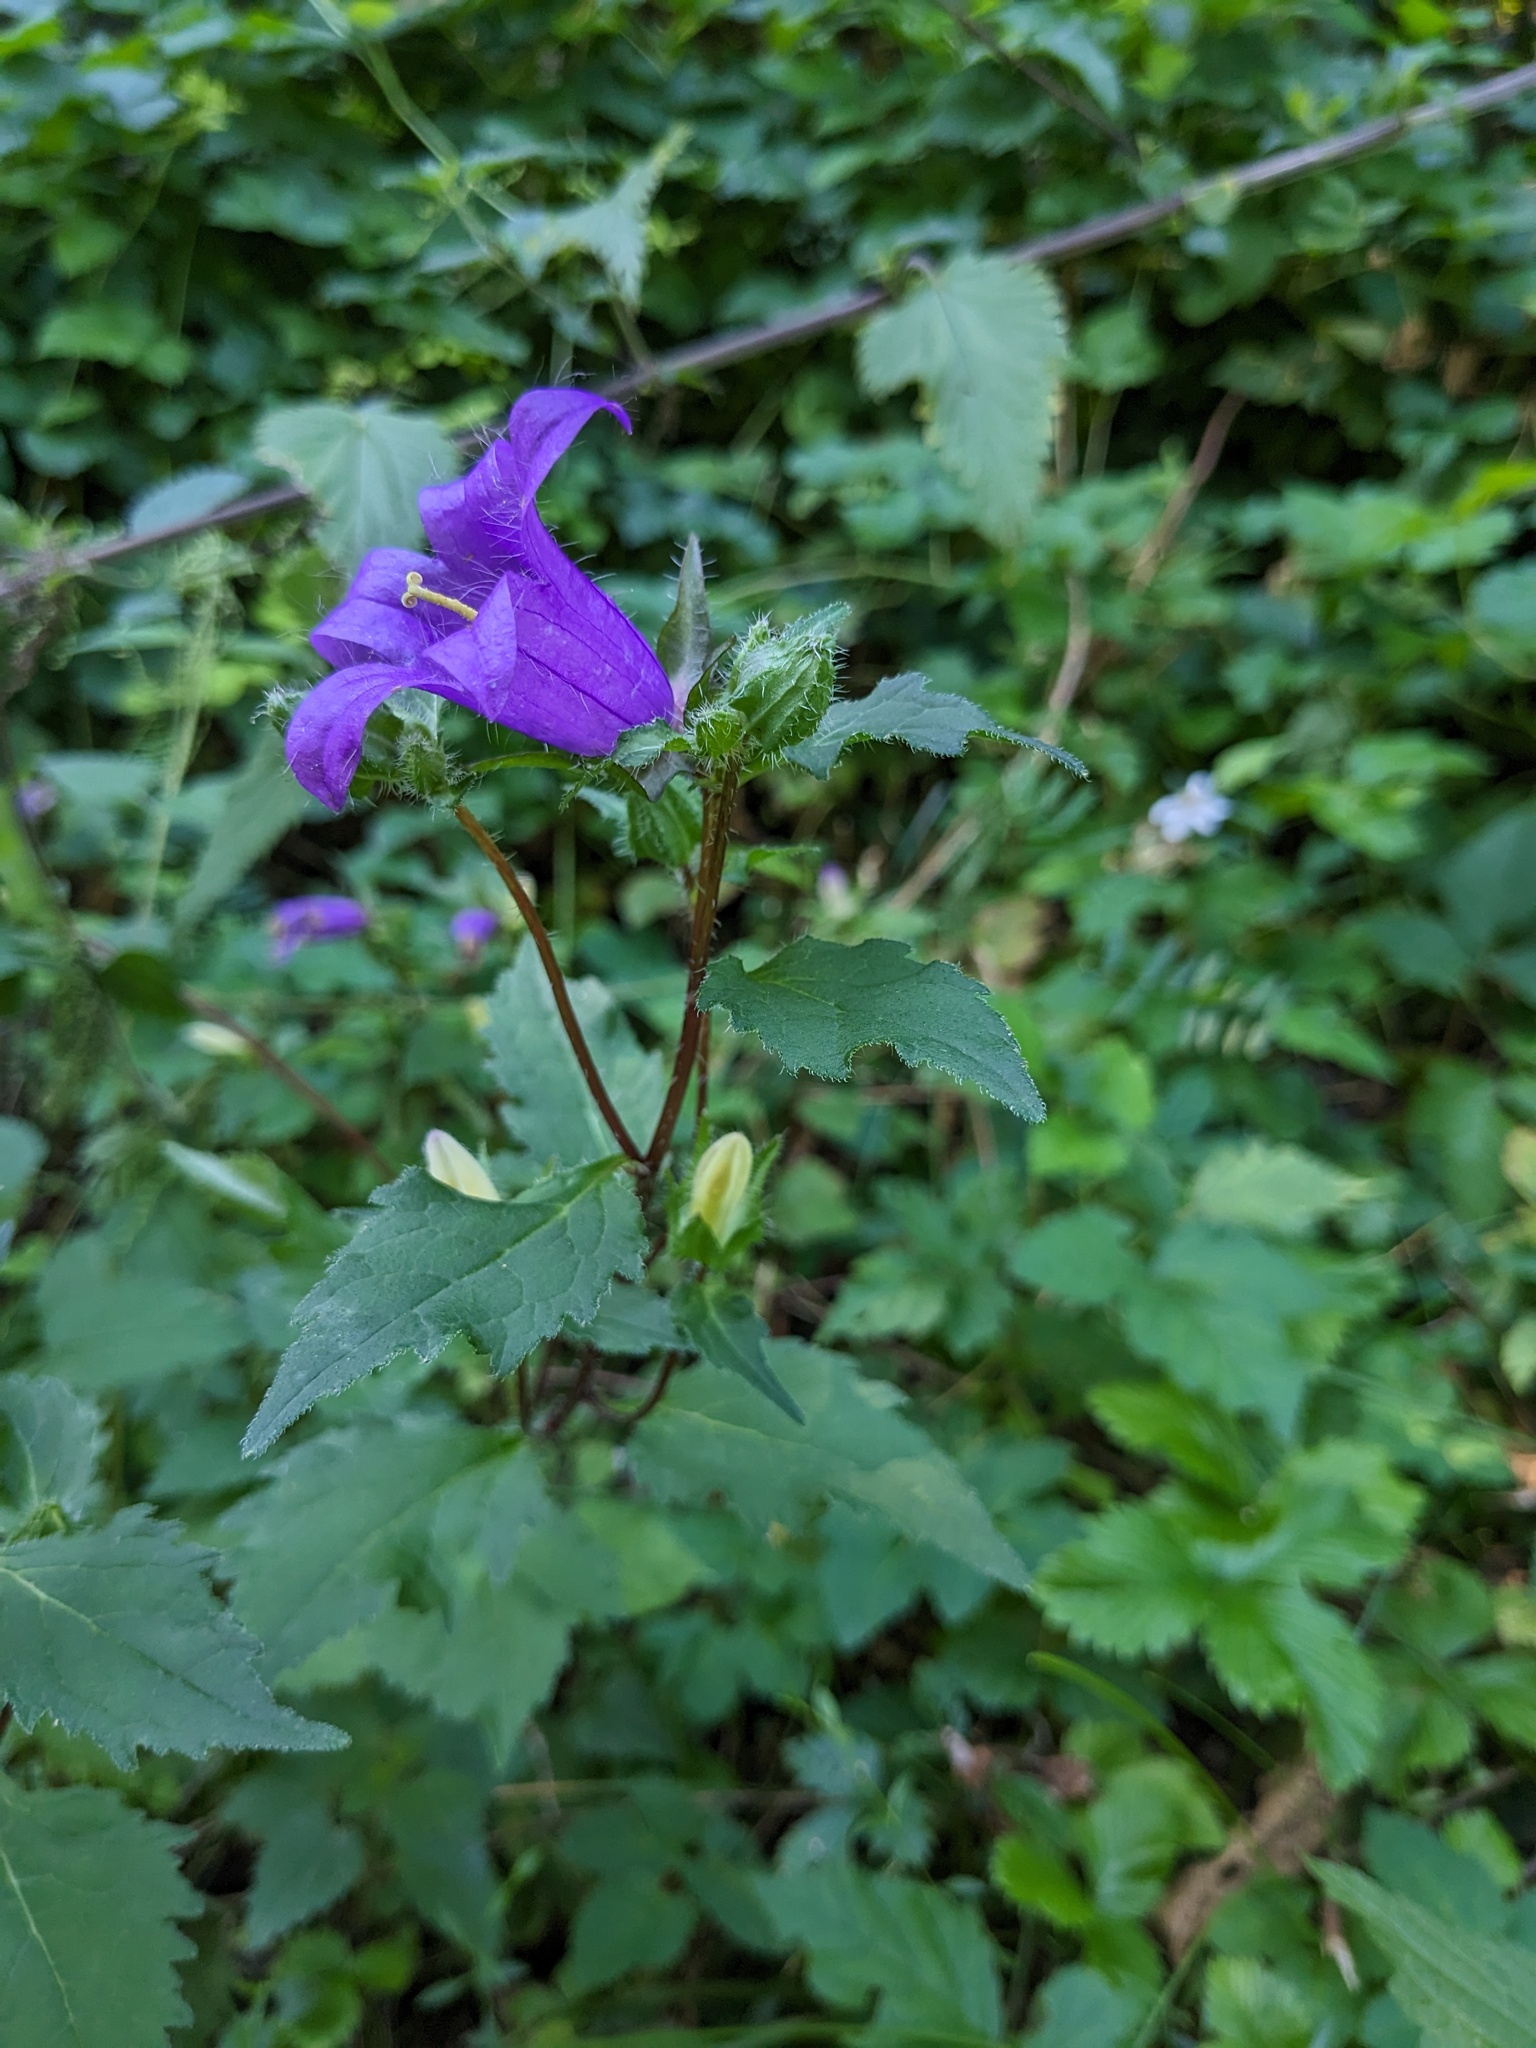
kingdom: Plantae
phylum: Tracheophyta
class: Magnoliopsida
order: Asterales
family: Campanulaceae
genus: Campanula
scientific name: Campanula trachelium
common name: Nettle-leaved bellflower
